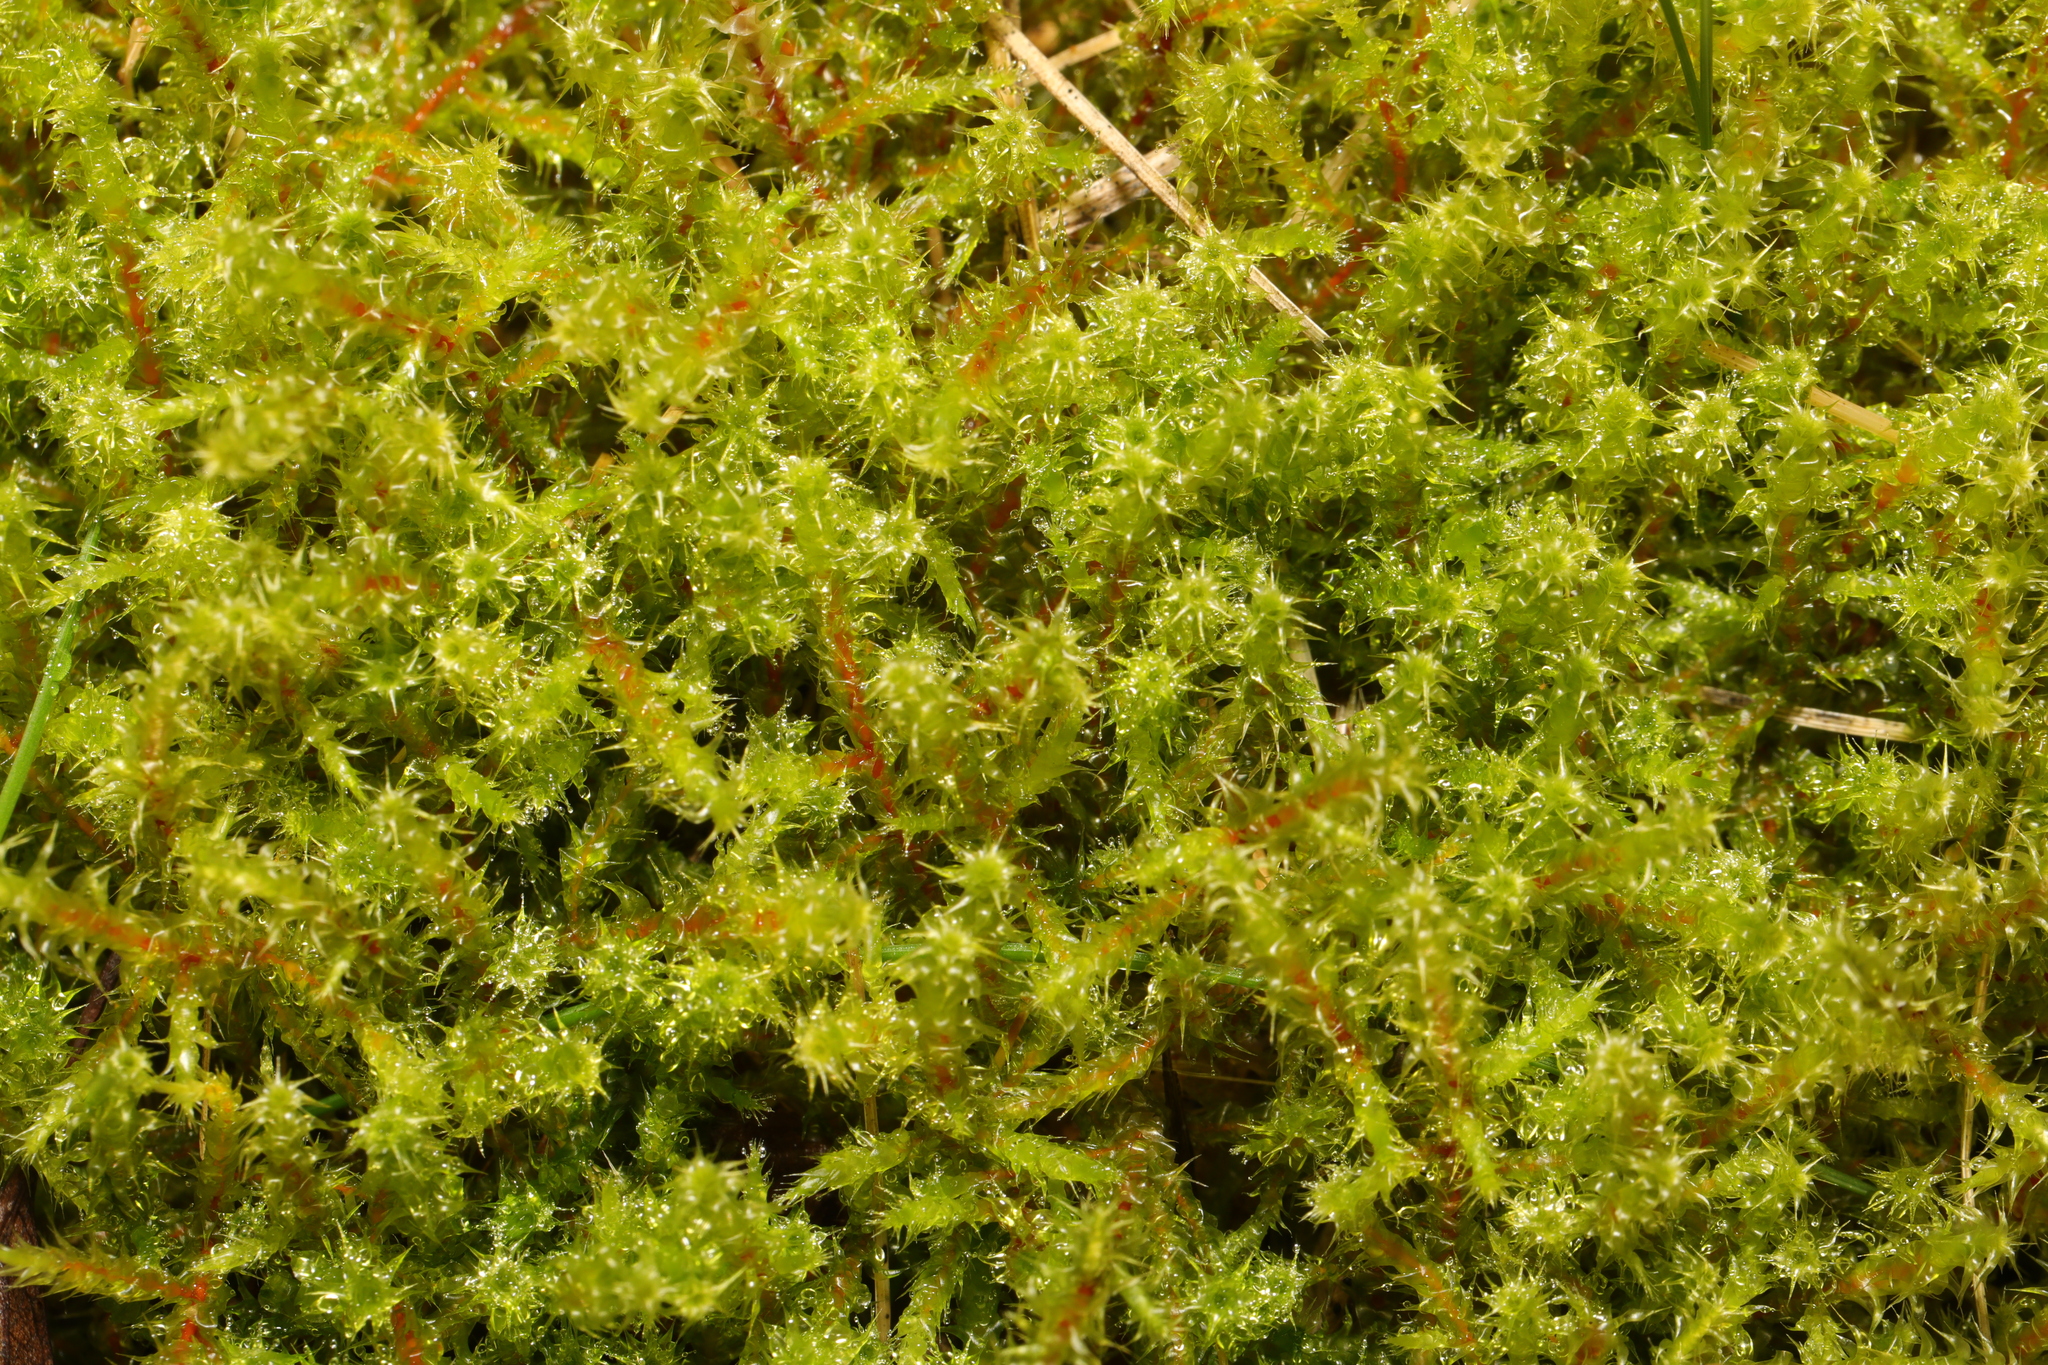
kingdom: Plantae
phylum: Bryophyta
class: Bryopsida
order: Hypnales
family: Hylocomiaceae
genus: Rhytidiadelphus
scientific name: Rhytidiadelphus squarrosus
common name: Springy turf-moss
